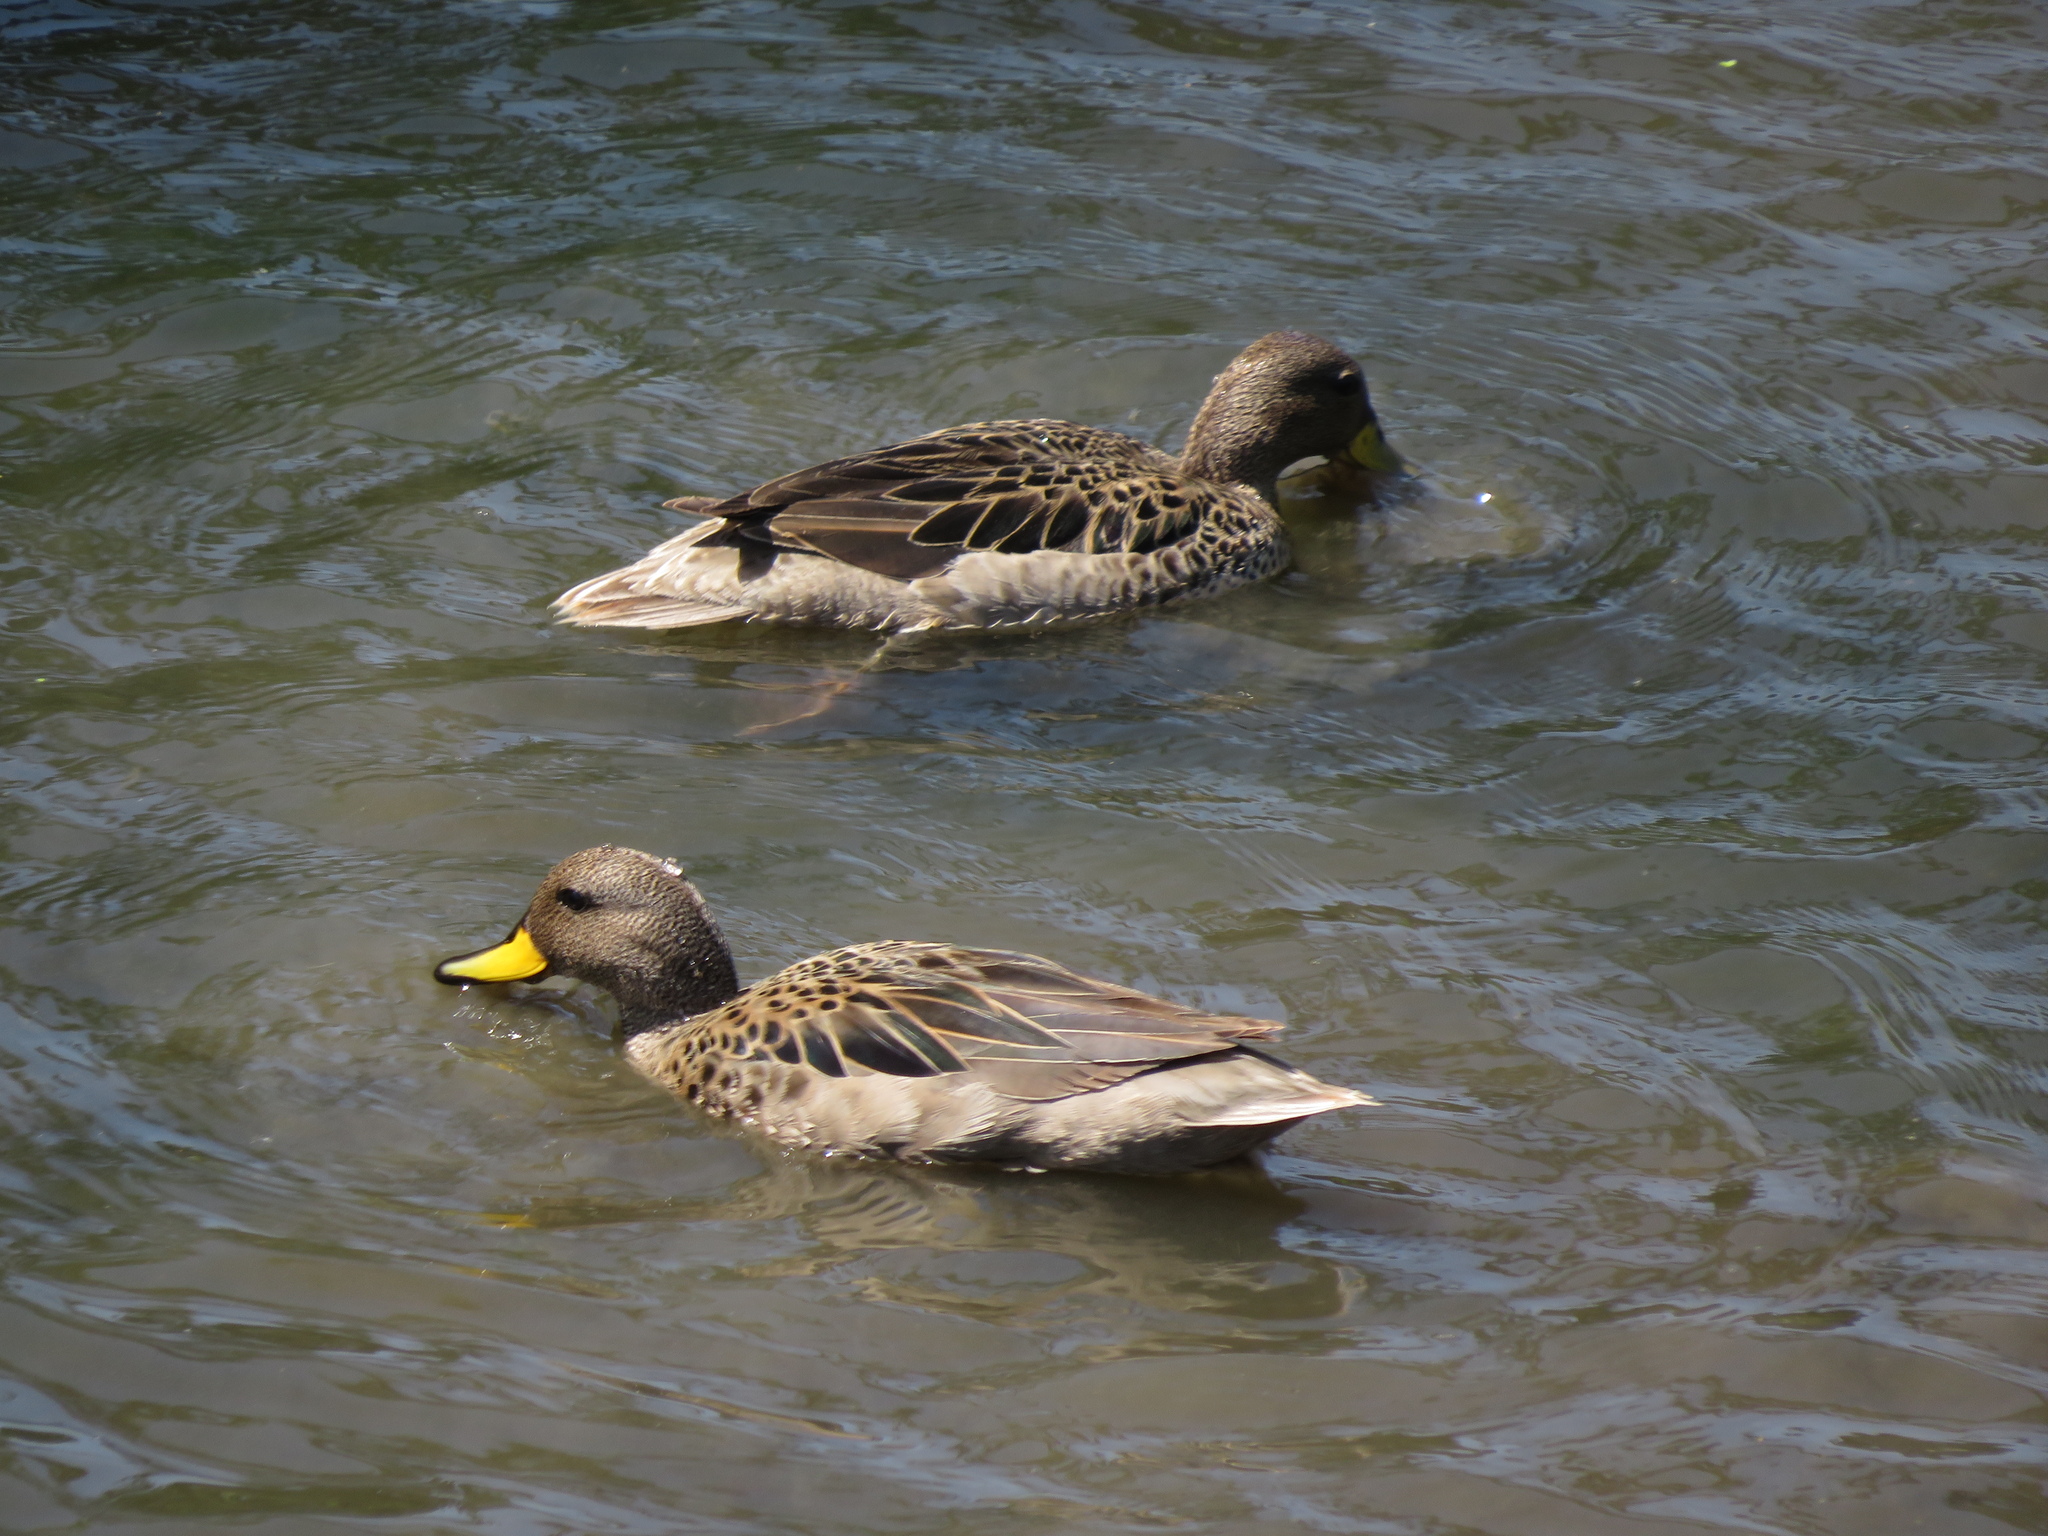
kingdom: Animalia
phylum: Chordata
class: Aves
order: Anseriformes
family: Anatidae
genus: Anas
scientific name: Anas flavirostris
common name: Yellow-billed teal
